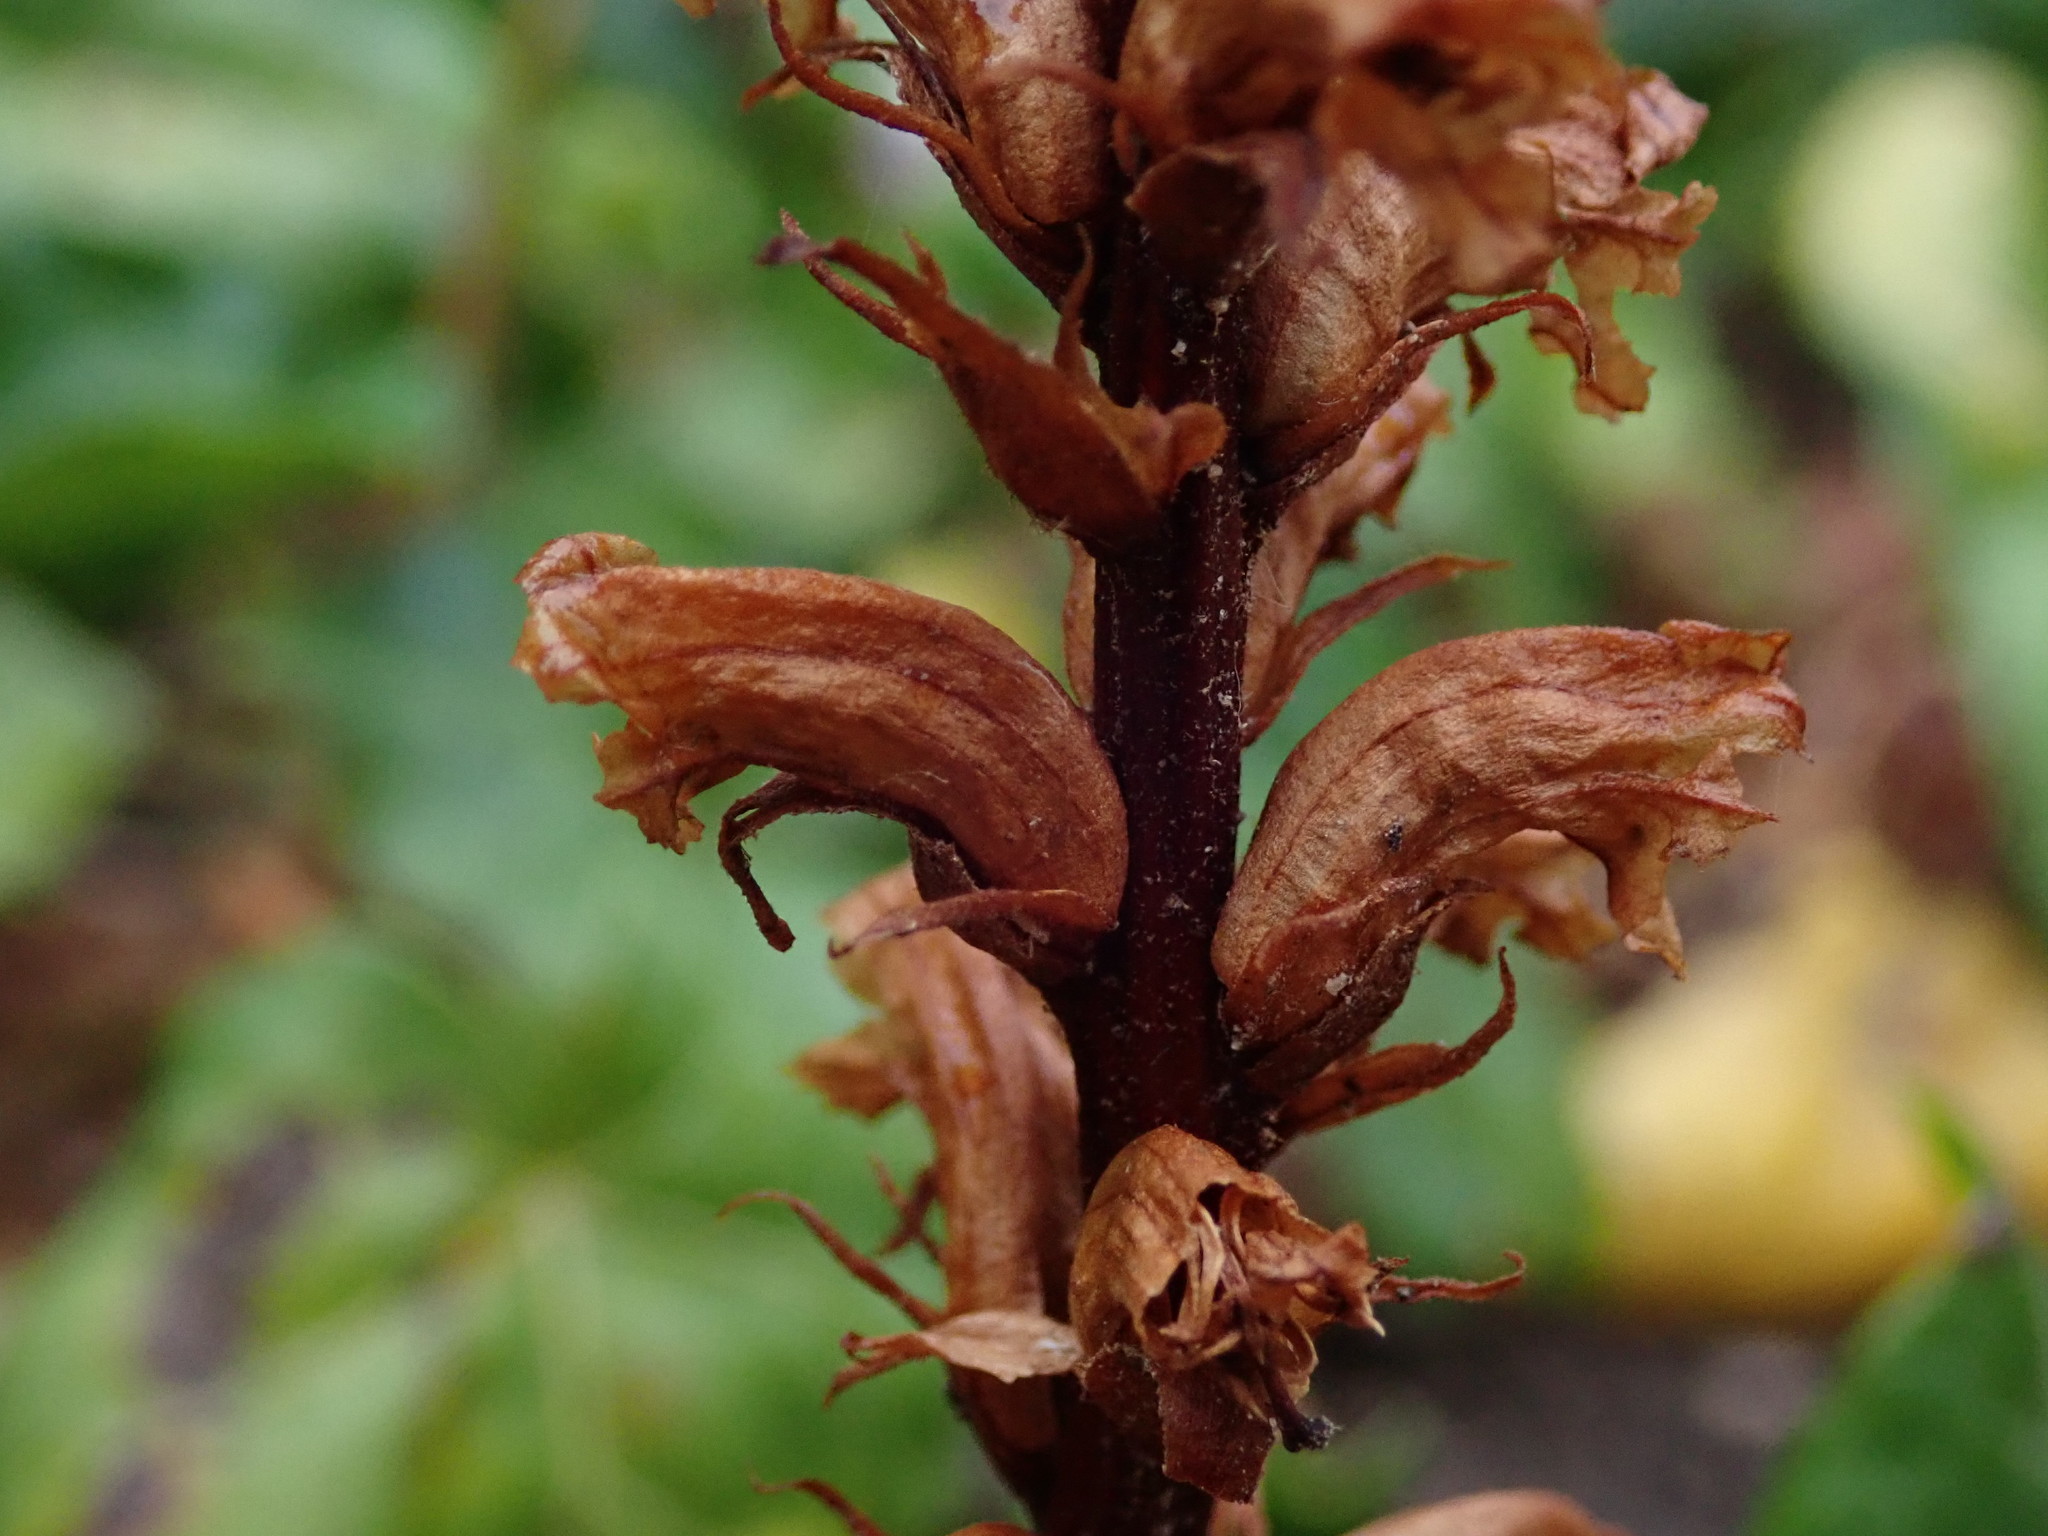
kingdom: Plantae
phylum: Tracheophyta
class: Magnoliopsida
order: Lamiales
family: Orobanchaceae
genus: Orobanche
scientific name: Orobanche hederae
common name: Ivy broomrape
